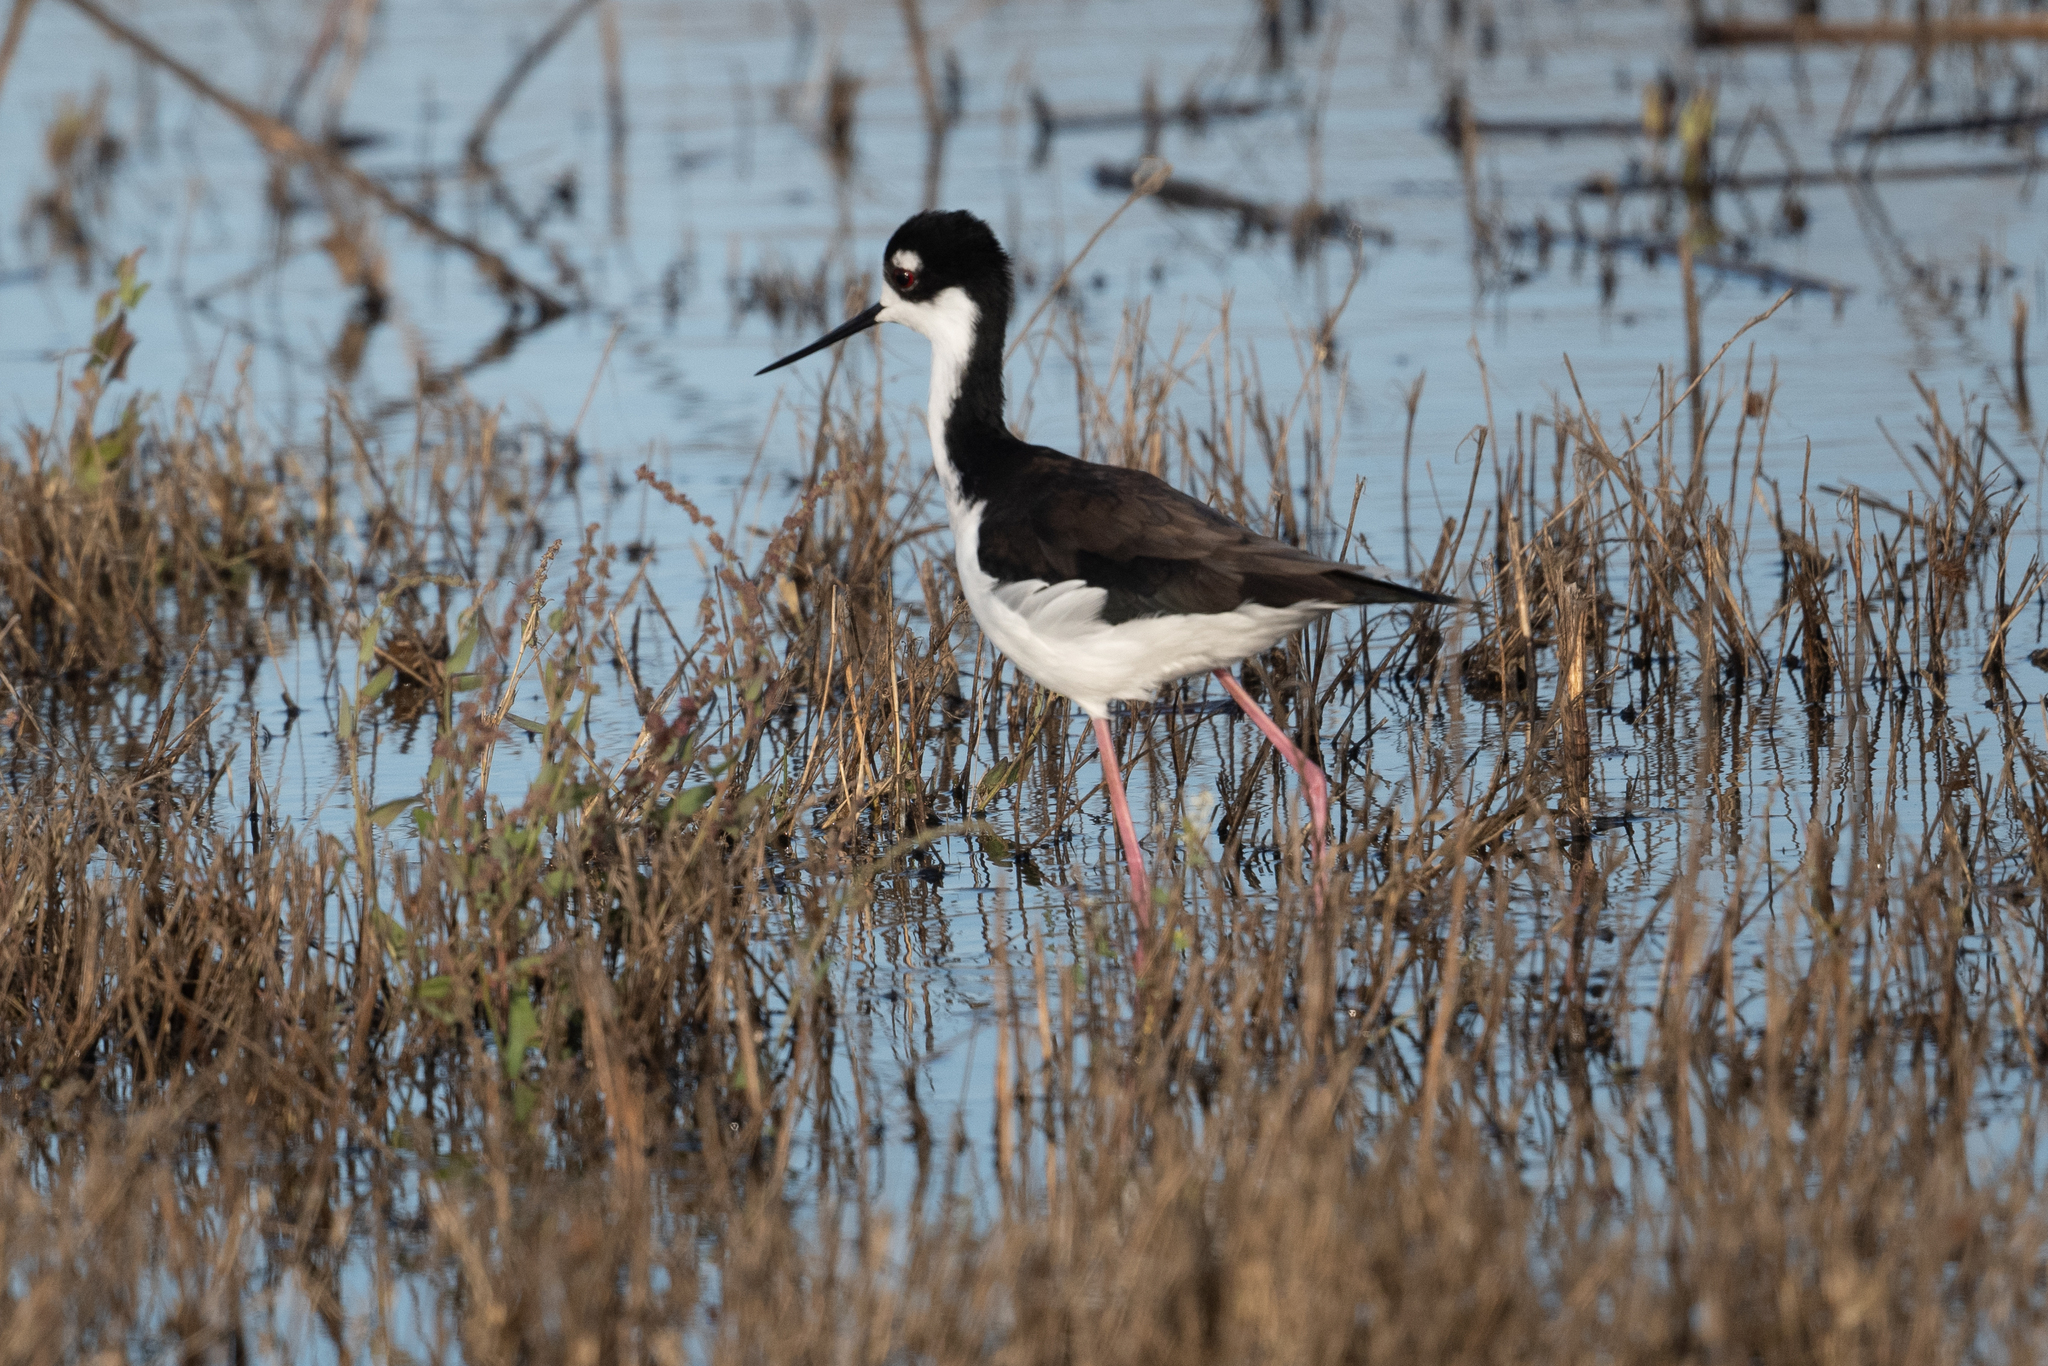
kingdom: Animalia
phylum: Chordata
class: Aves
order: Charadriiformes
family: Recurvirostridae
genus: Himantopus
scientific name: Himantopus mexicanus
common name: Black-necked stilt
